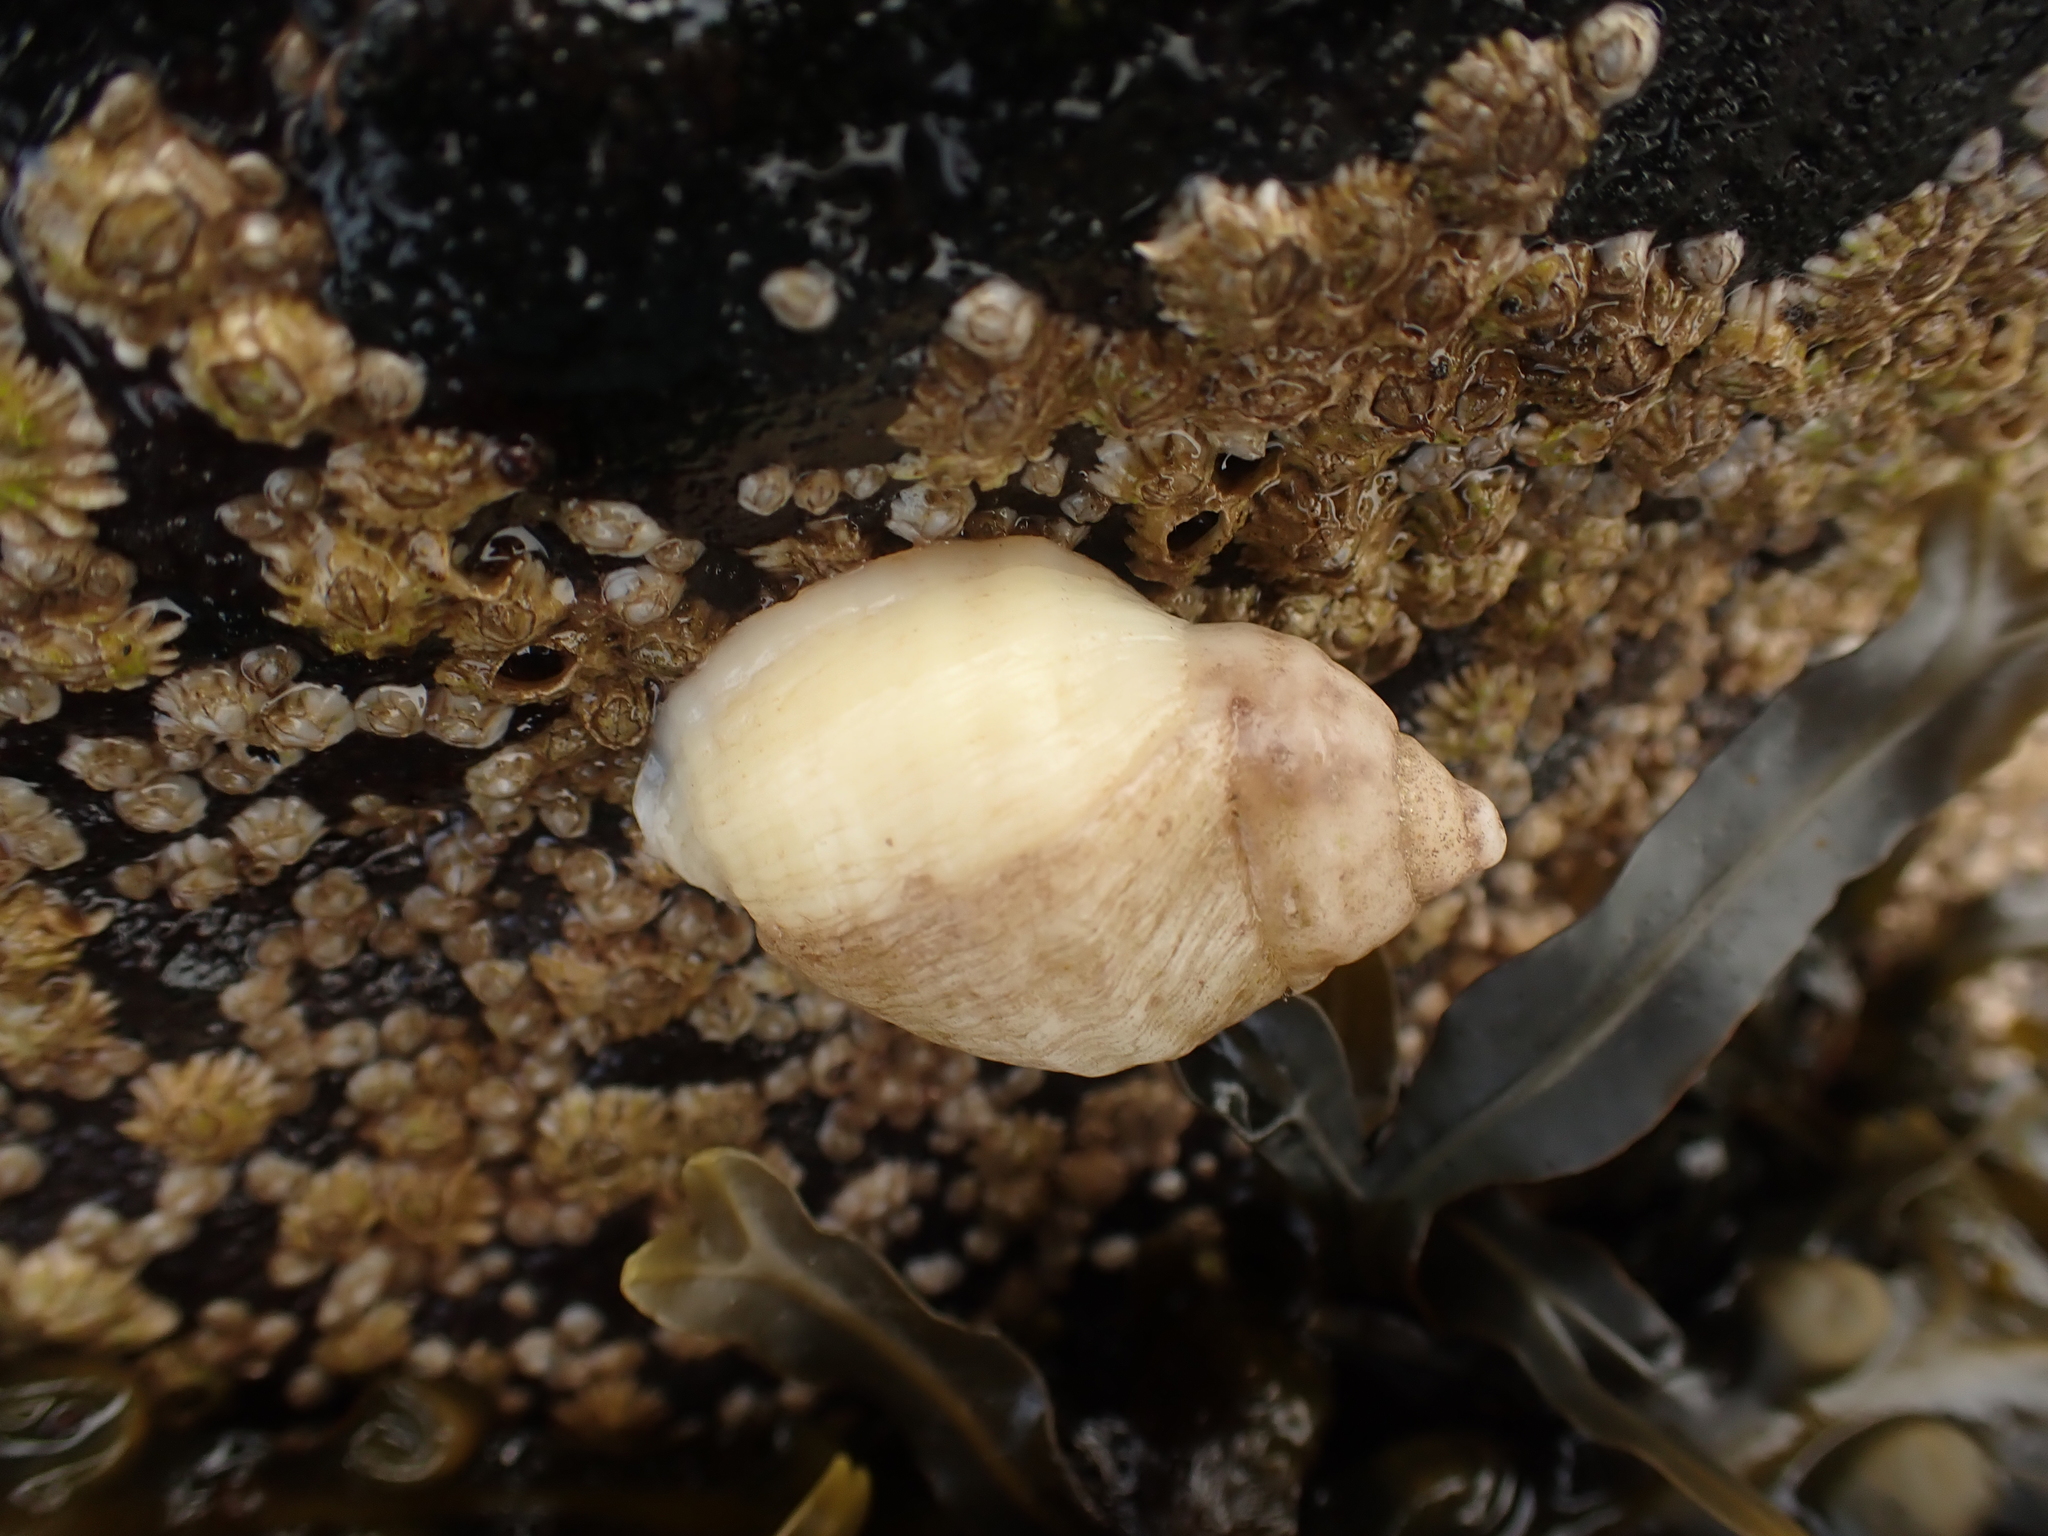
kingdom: Animalia
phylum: Mollusca
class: Gastropoda
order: Neogastropoda
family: Muricidae
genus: Nucella
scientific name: Nucella lapillus
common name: Dog whelk
